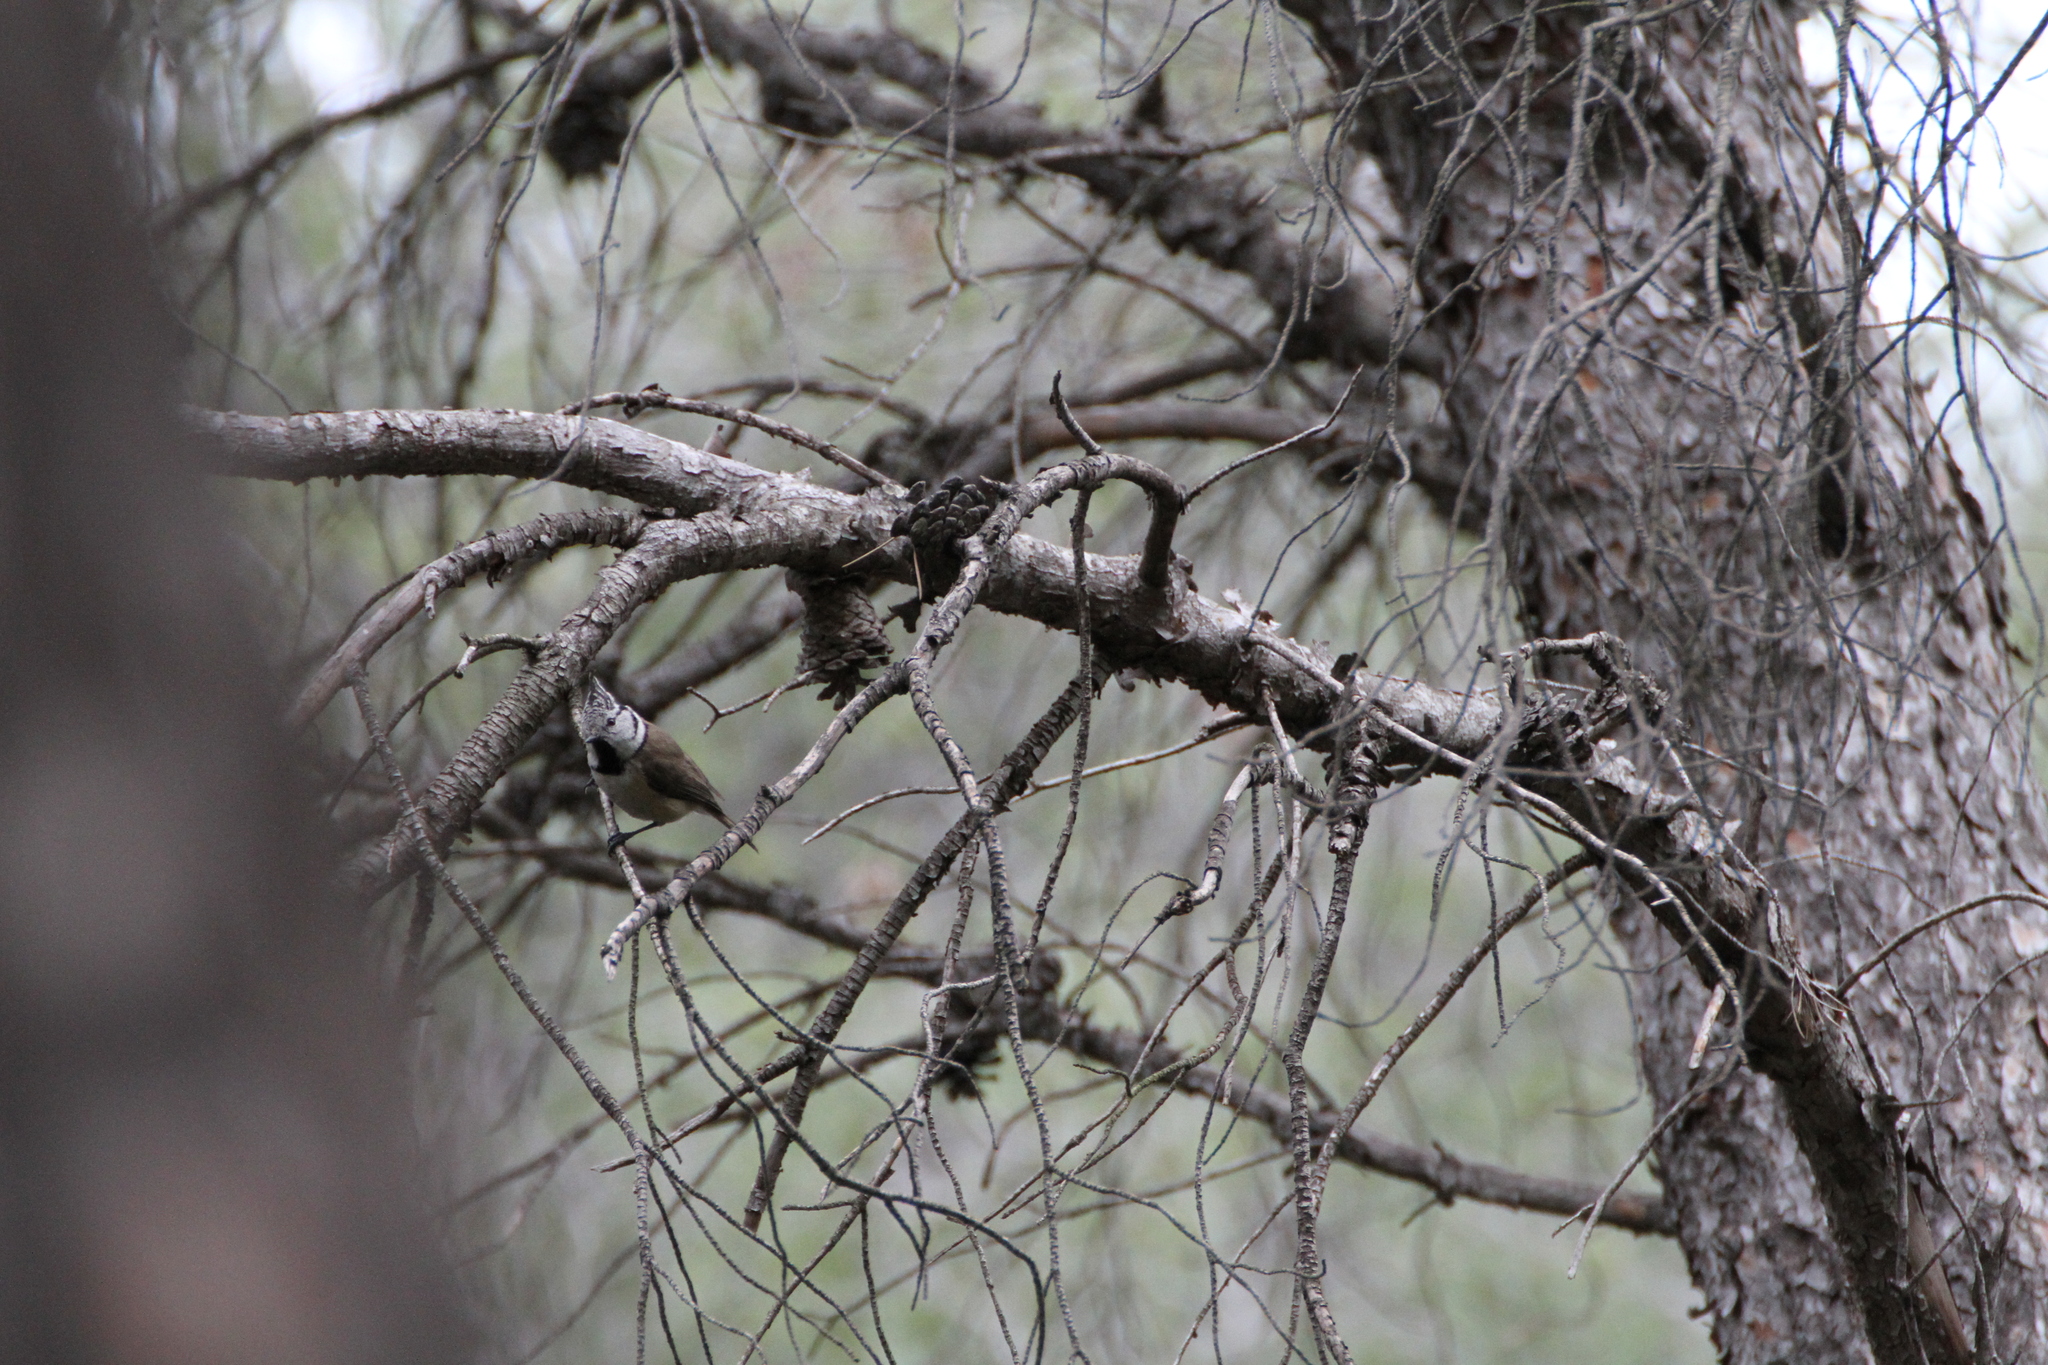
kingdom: Animalia
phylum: Chordata
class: Aves
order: Passeriformes
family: Paridae
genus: Lophophanes
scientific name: Lophophanes cristatus
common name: European crested tit
